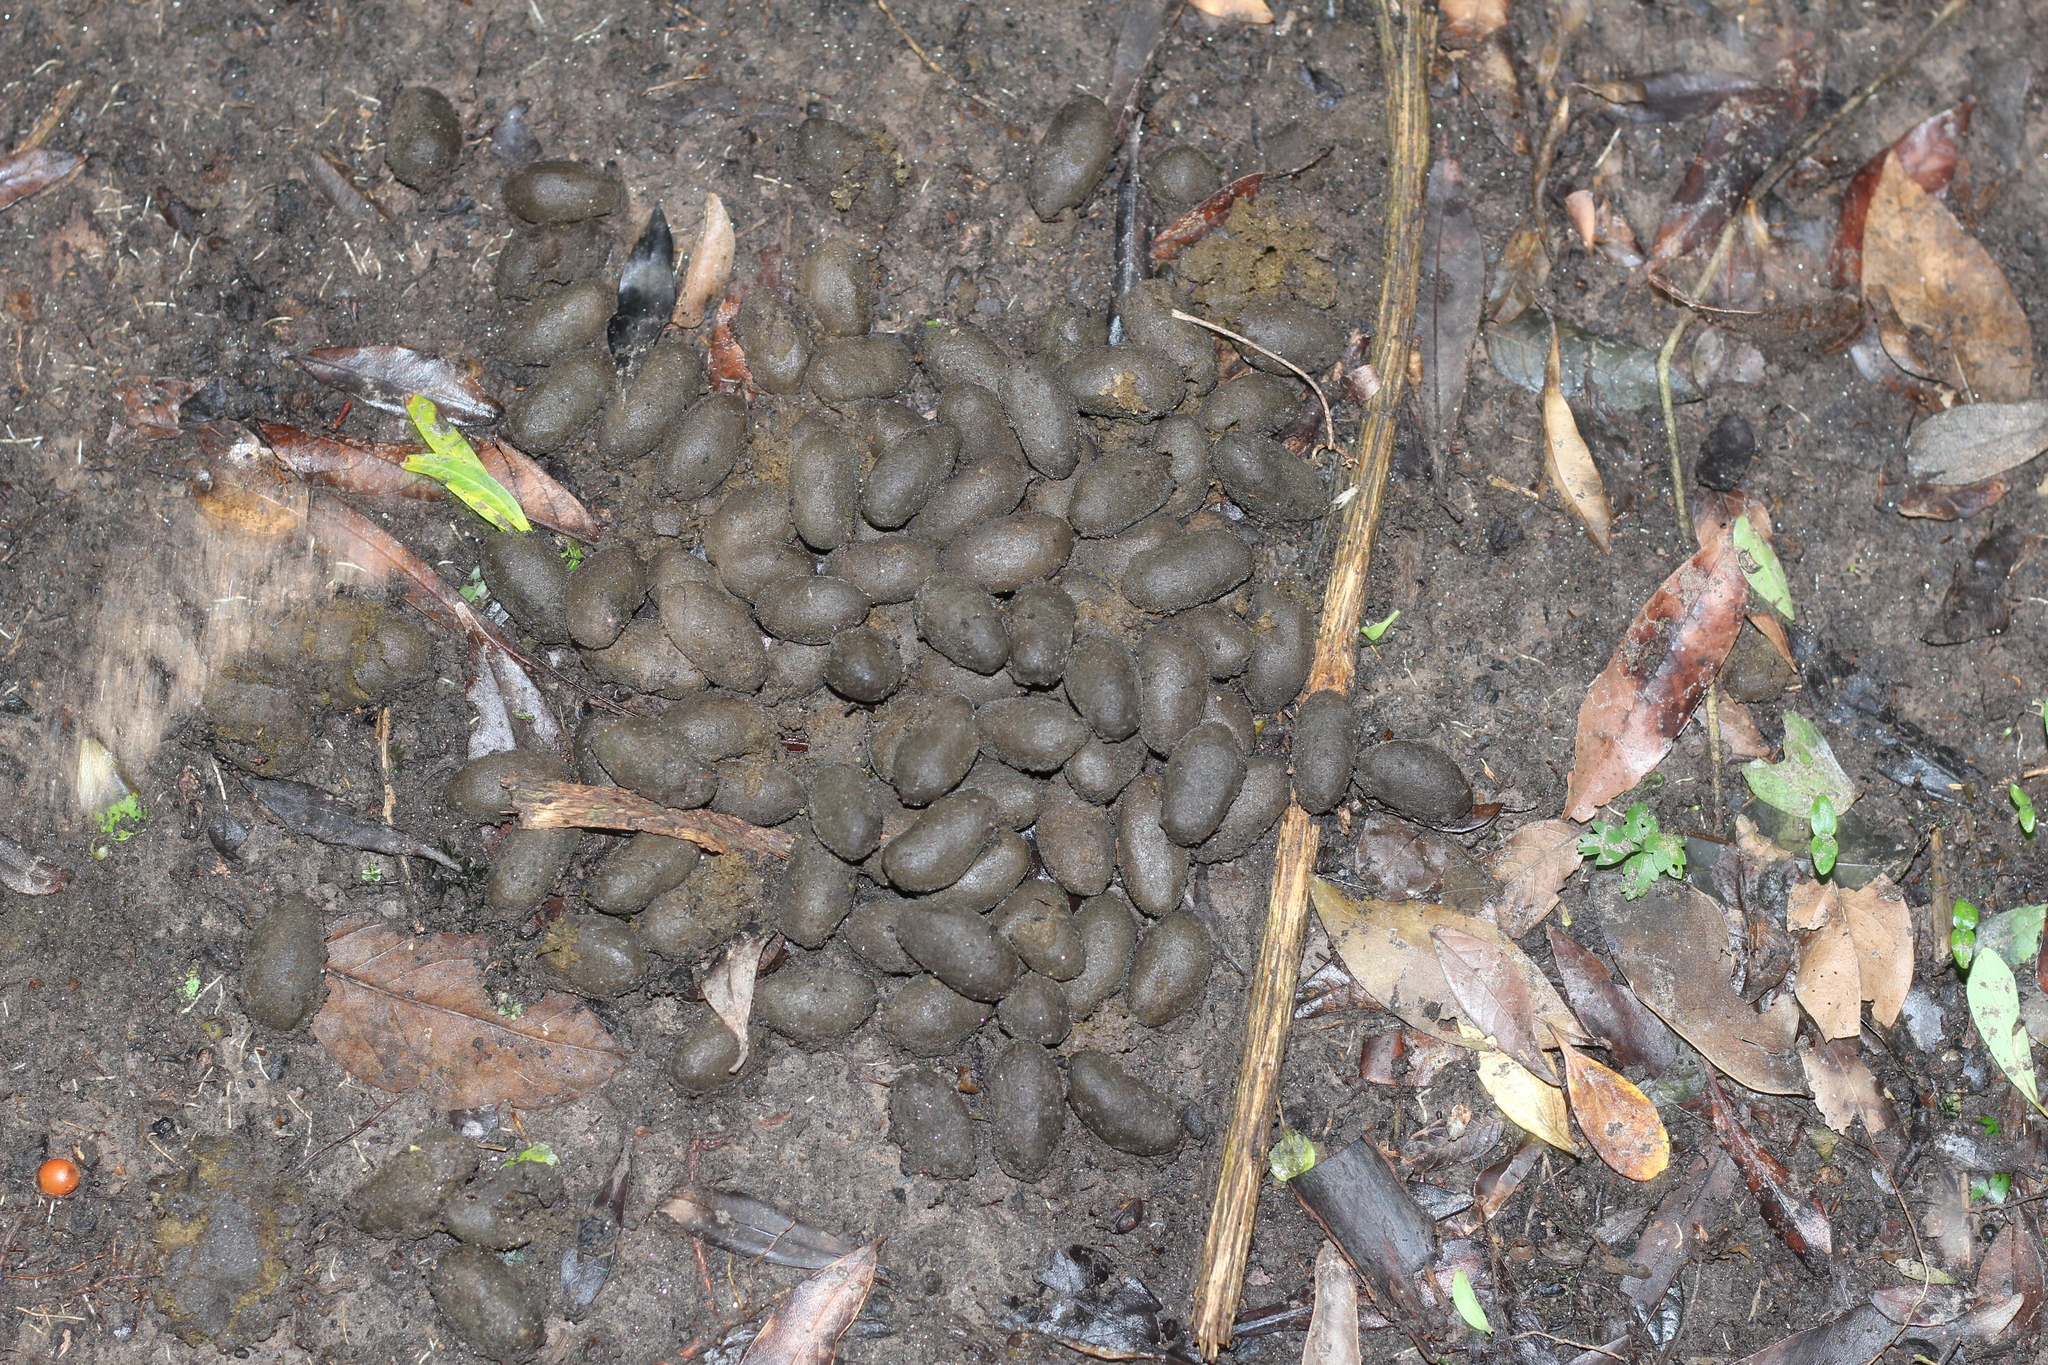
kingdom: Animalia
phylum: Chordata
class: Mammalia
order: Rodentia
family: Caviidae
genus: Hydrochoerus
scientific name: Hydrochoerus hydrochaeris
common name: Capybara
